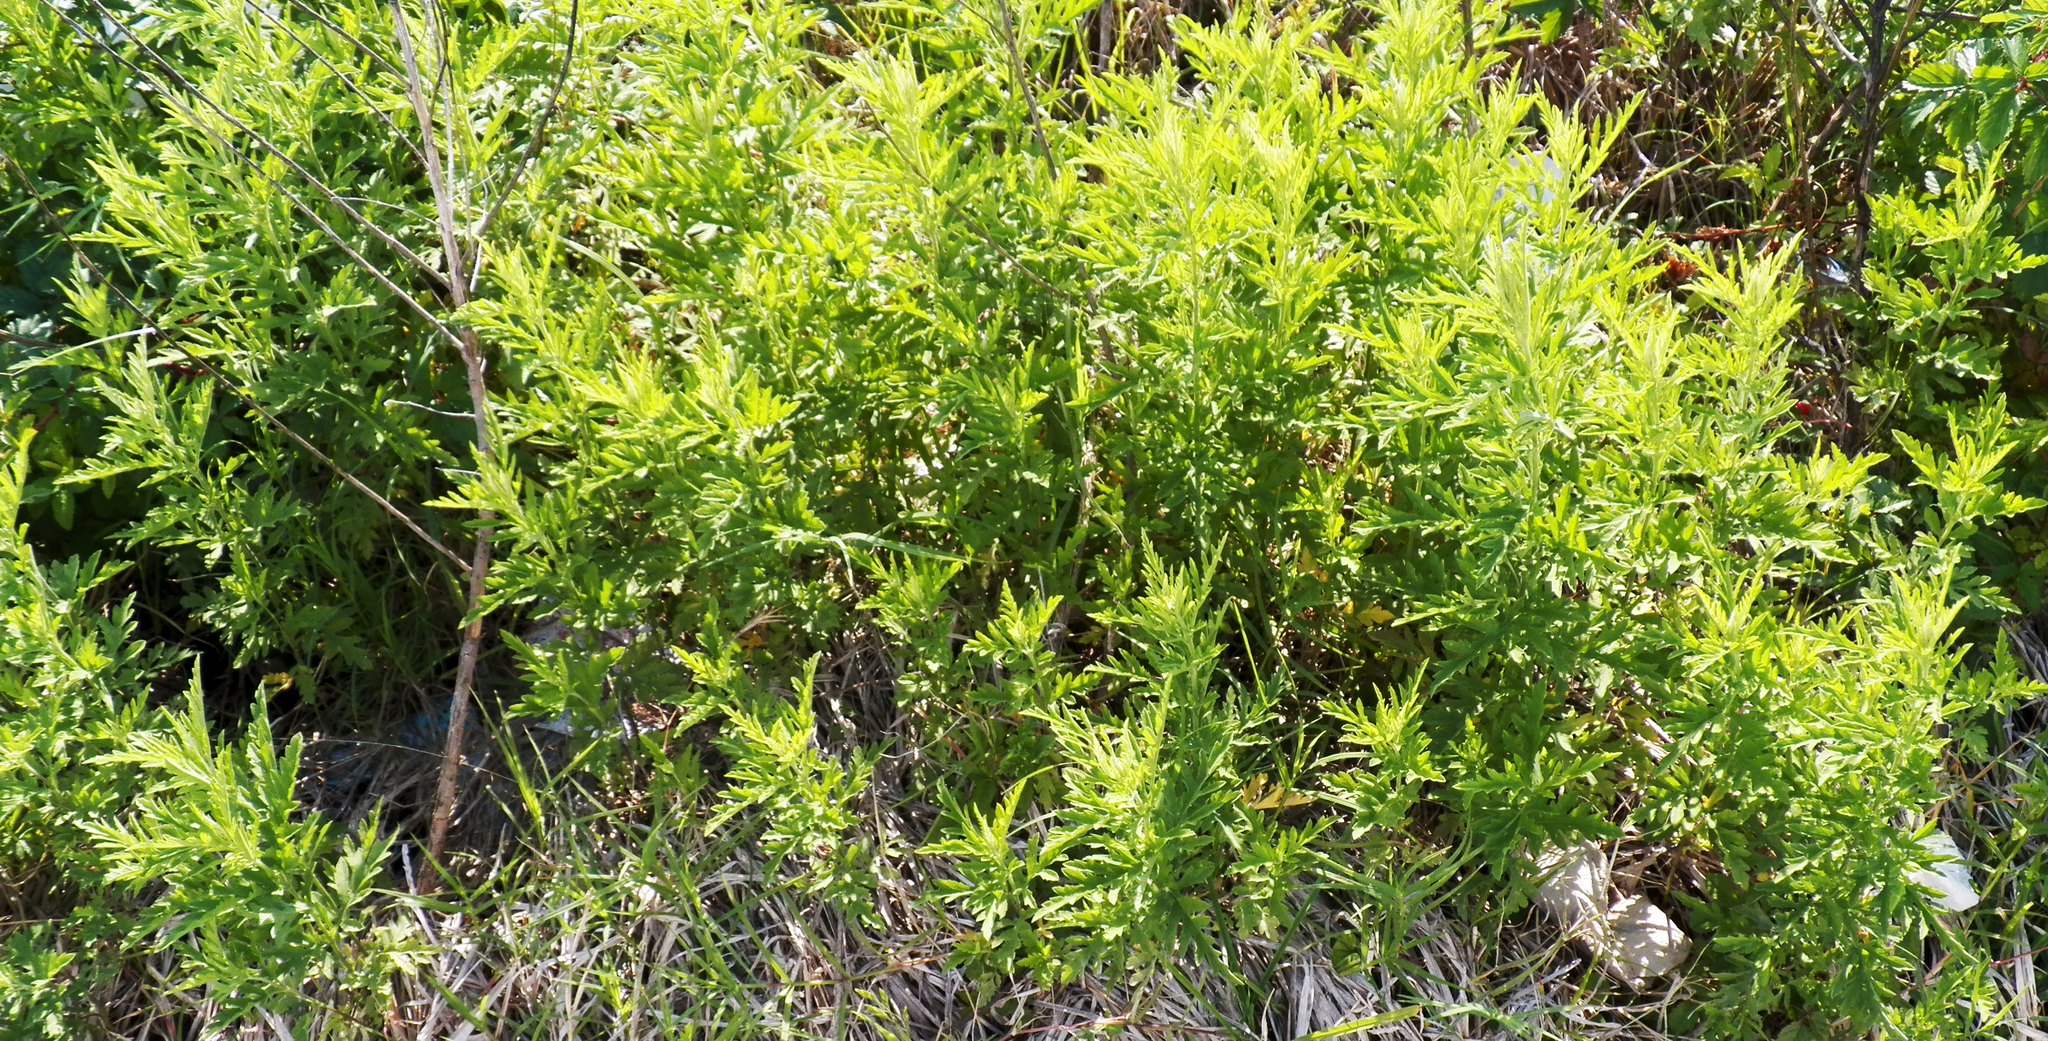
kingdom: Plantae
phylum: Tracheophyta
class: Magnoliopsida
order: Asterales
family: Asteraceae
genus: Ambrosia
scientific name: Ambrosia psilostachya
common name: Perennial ragweed
